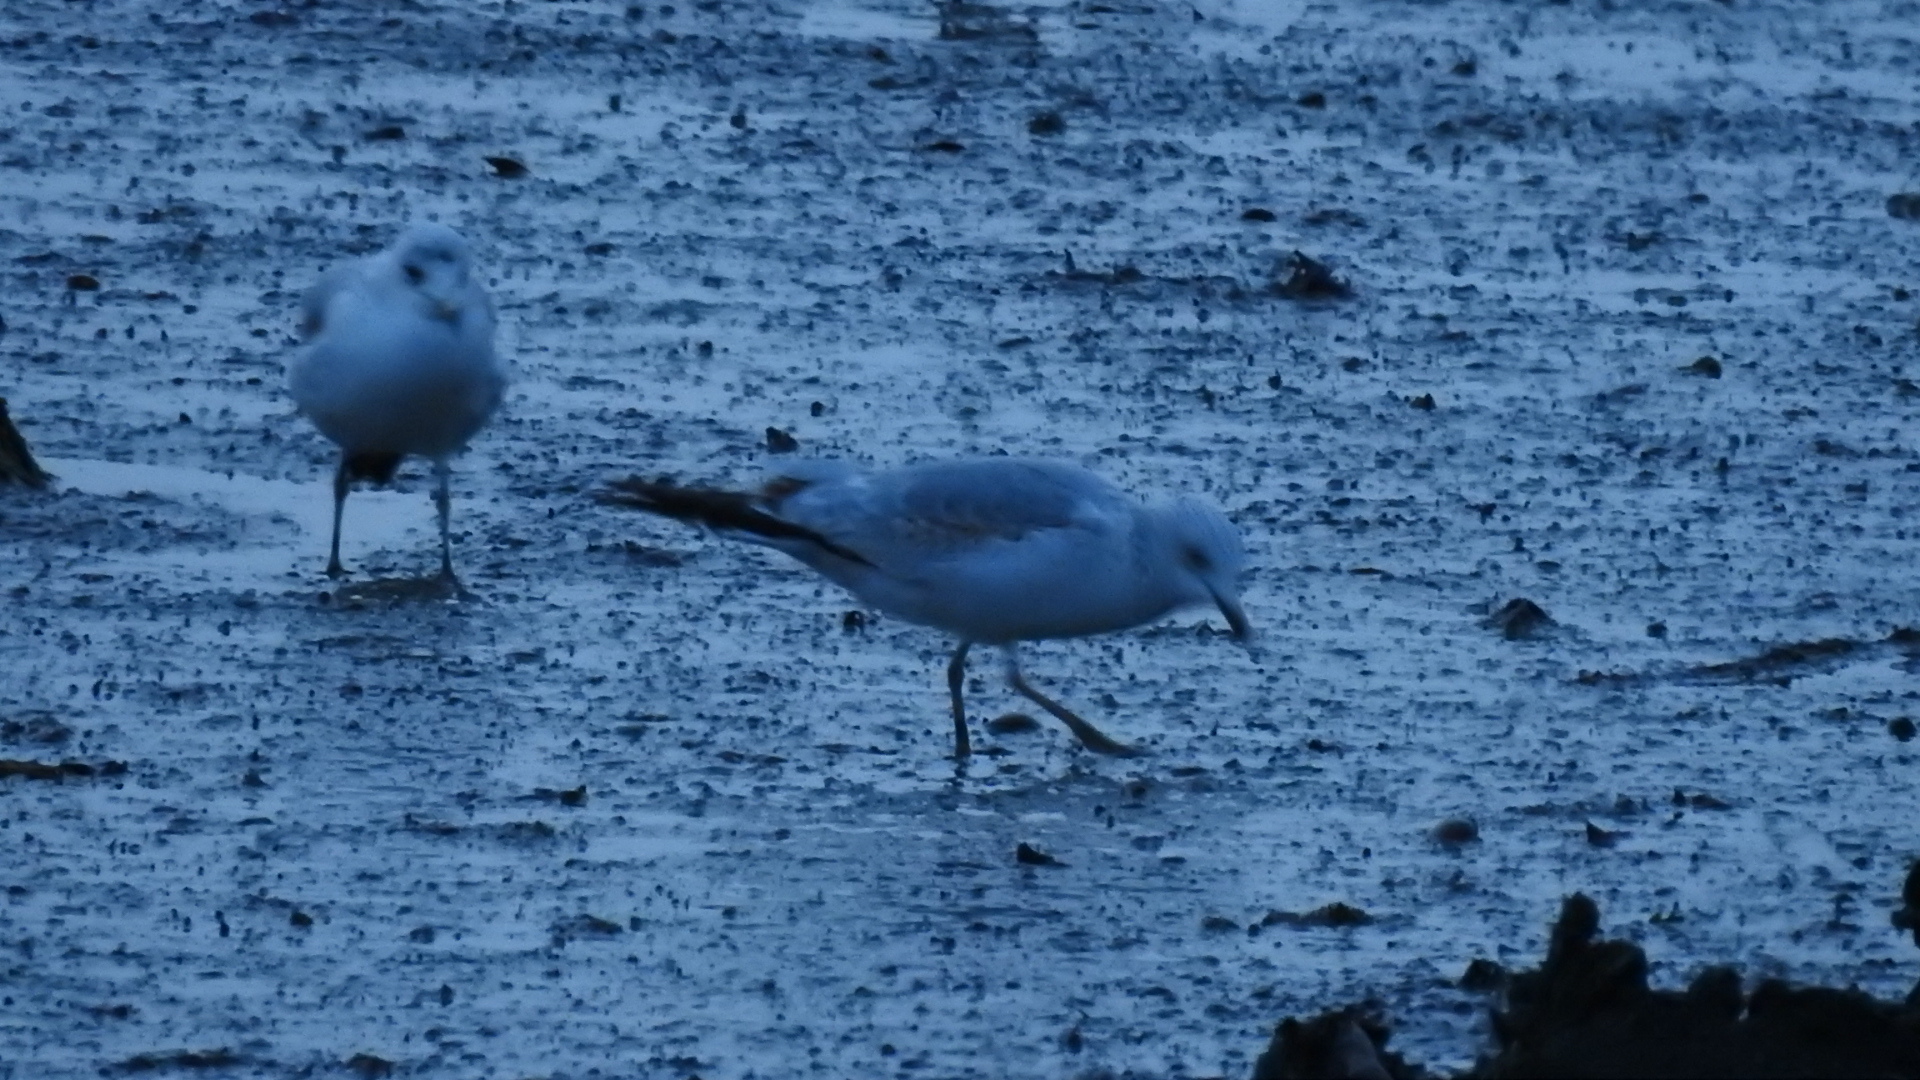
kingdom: Animalia
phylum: Chordata
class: Aves
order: Charadriiformes
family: Laridae
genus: Larus
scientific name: Larus brachyrhynchus
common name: Short-billed gull
